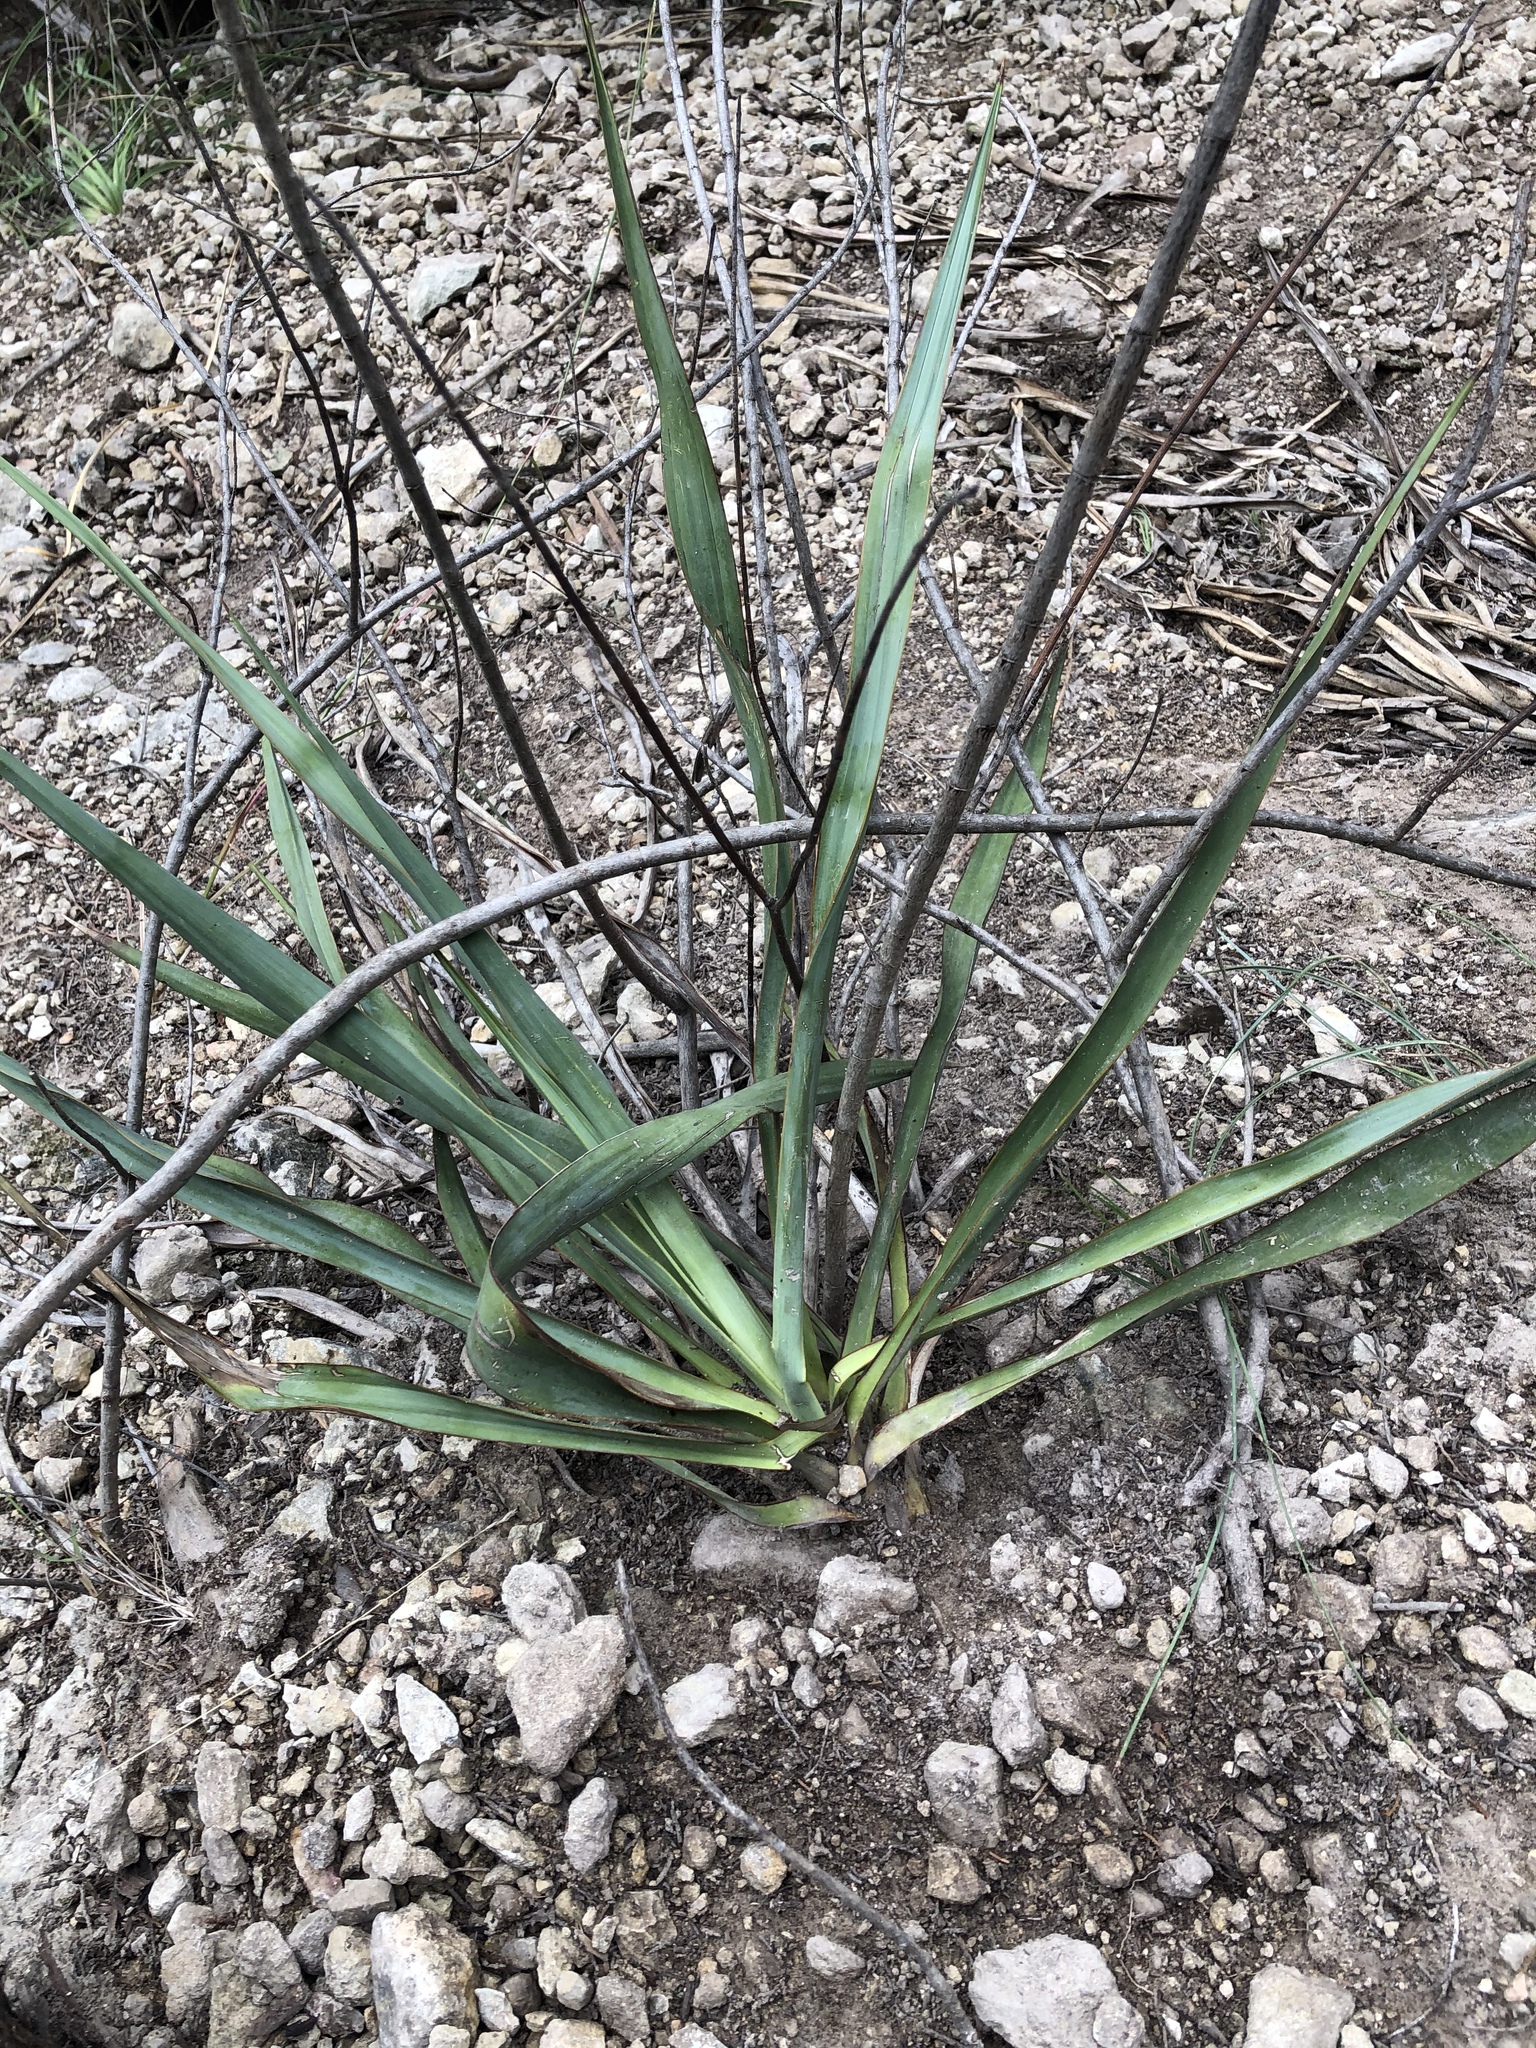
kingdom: Plantae
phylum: Tracheophyta
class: Liliopsida
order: Asparagales
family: Asparagaceae
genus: Yucca
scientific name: Yucca rupicola
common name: Twisted-leaf spanish-dagger
